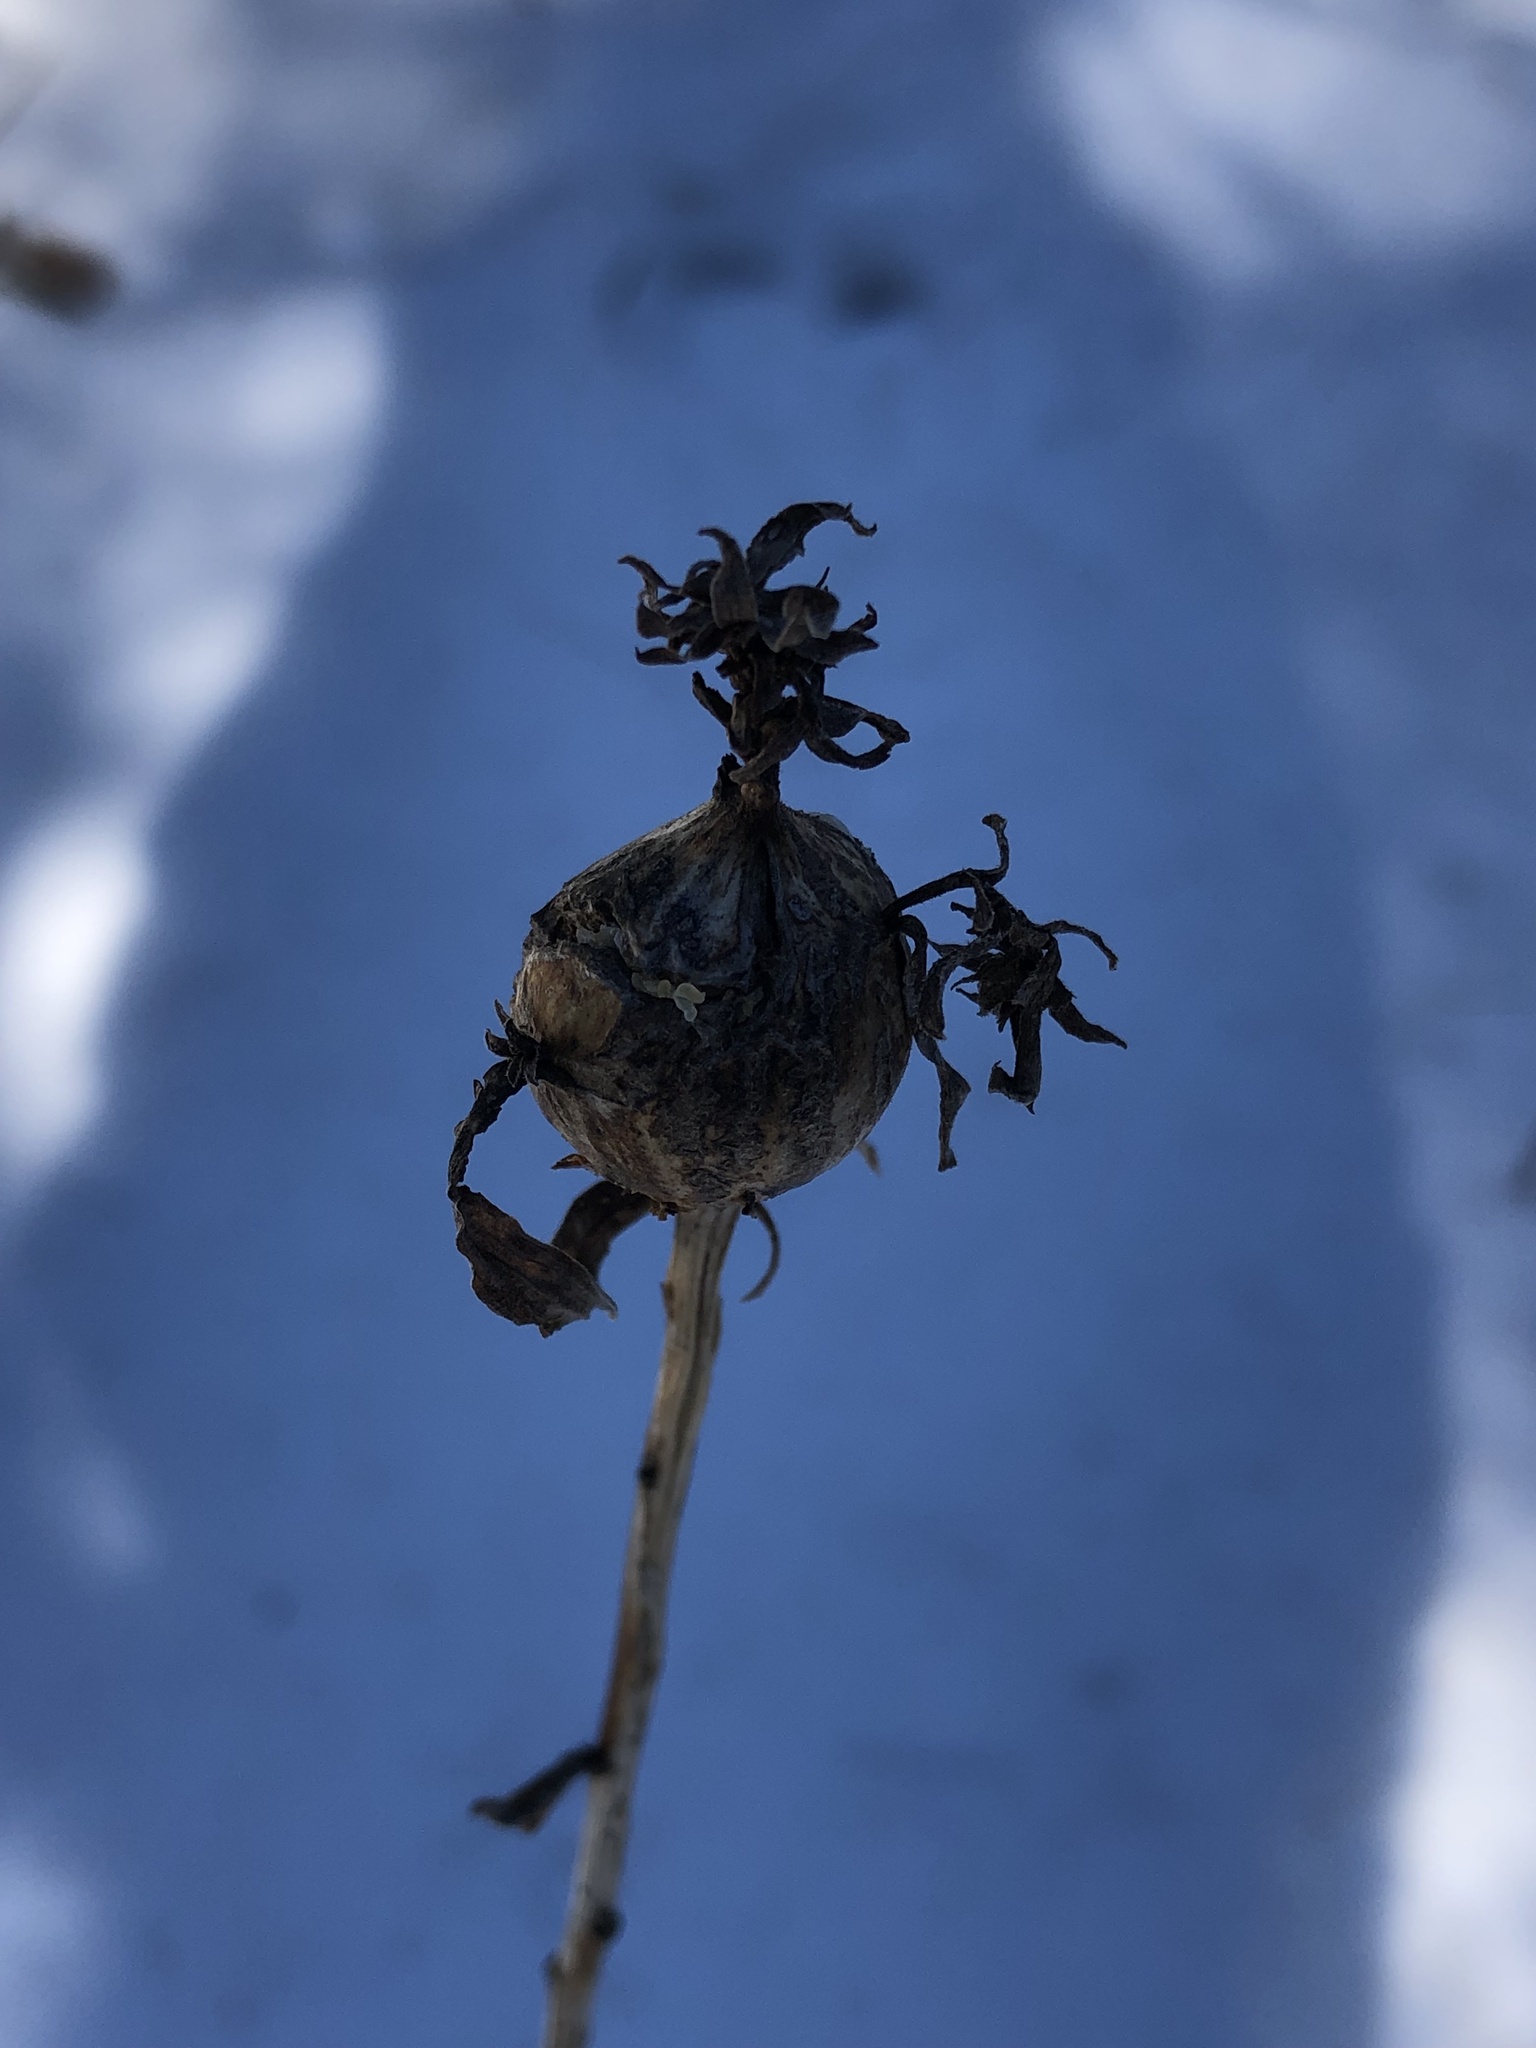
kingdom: Animalia
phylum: Arthropoda
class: Insecta
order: Diptera
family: Tephritidae
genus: Eurosta
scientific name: Eurosta solidaginis
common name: Goldenrod gall fly
